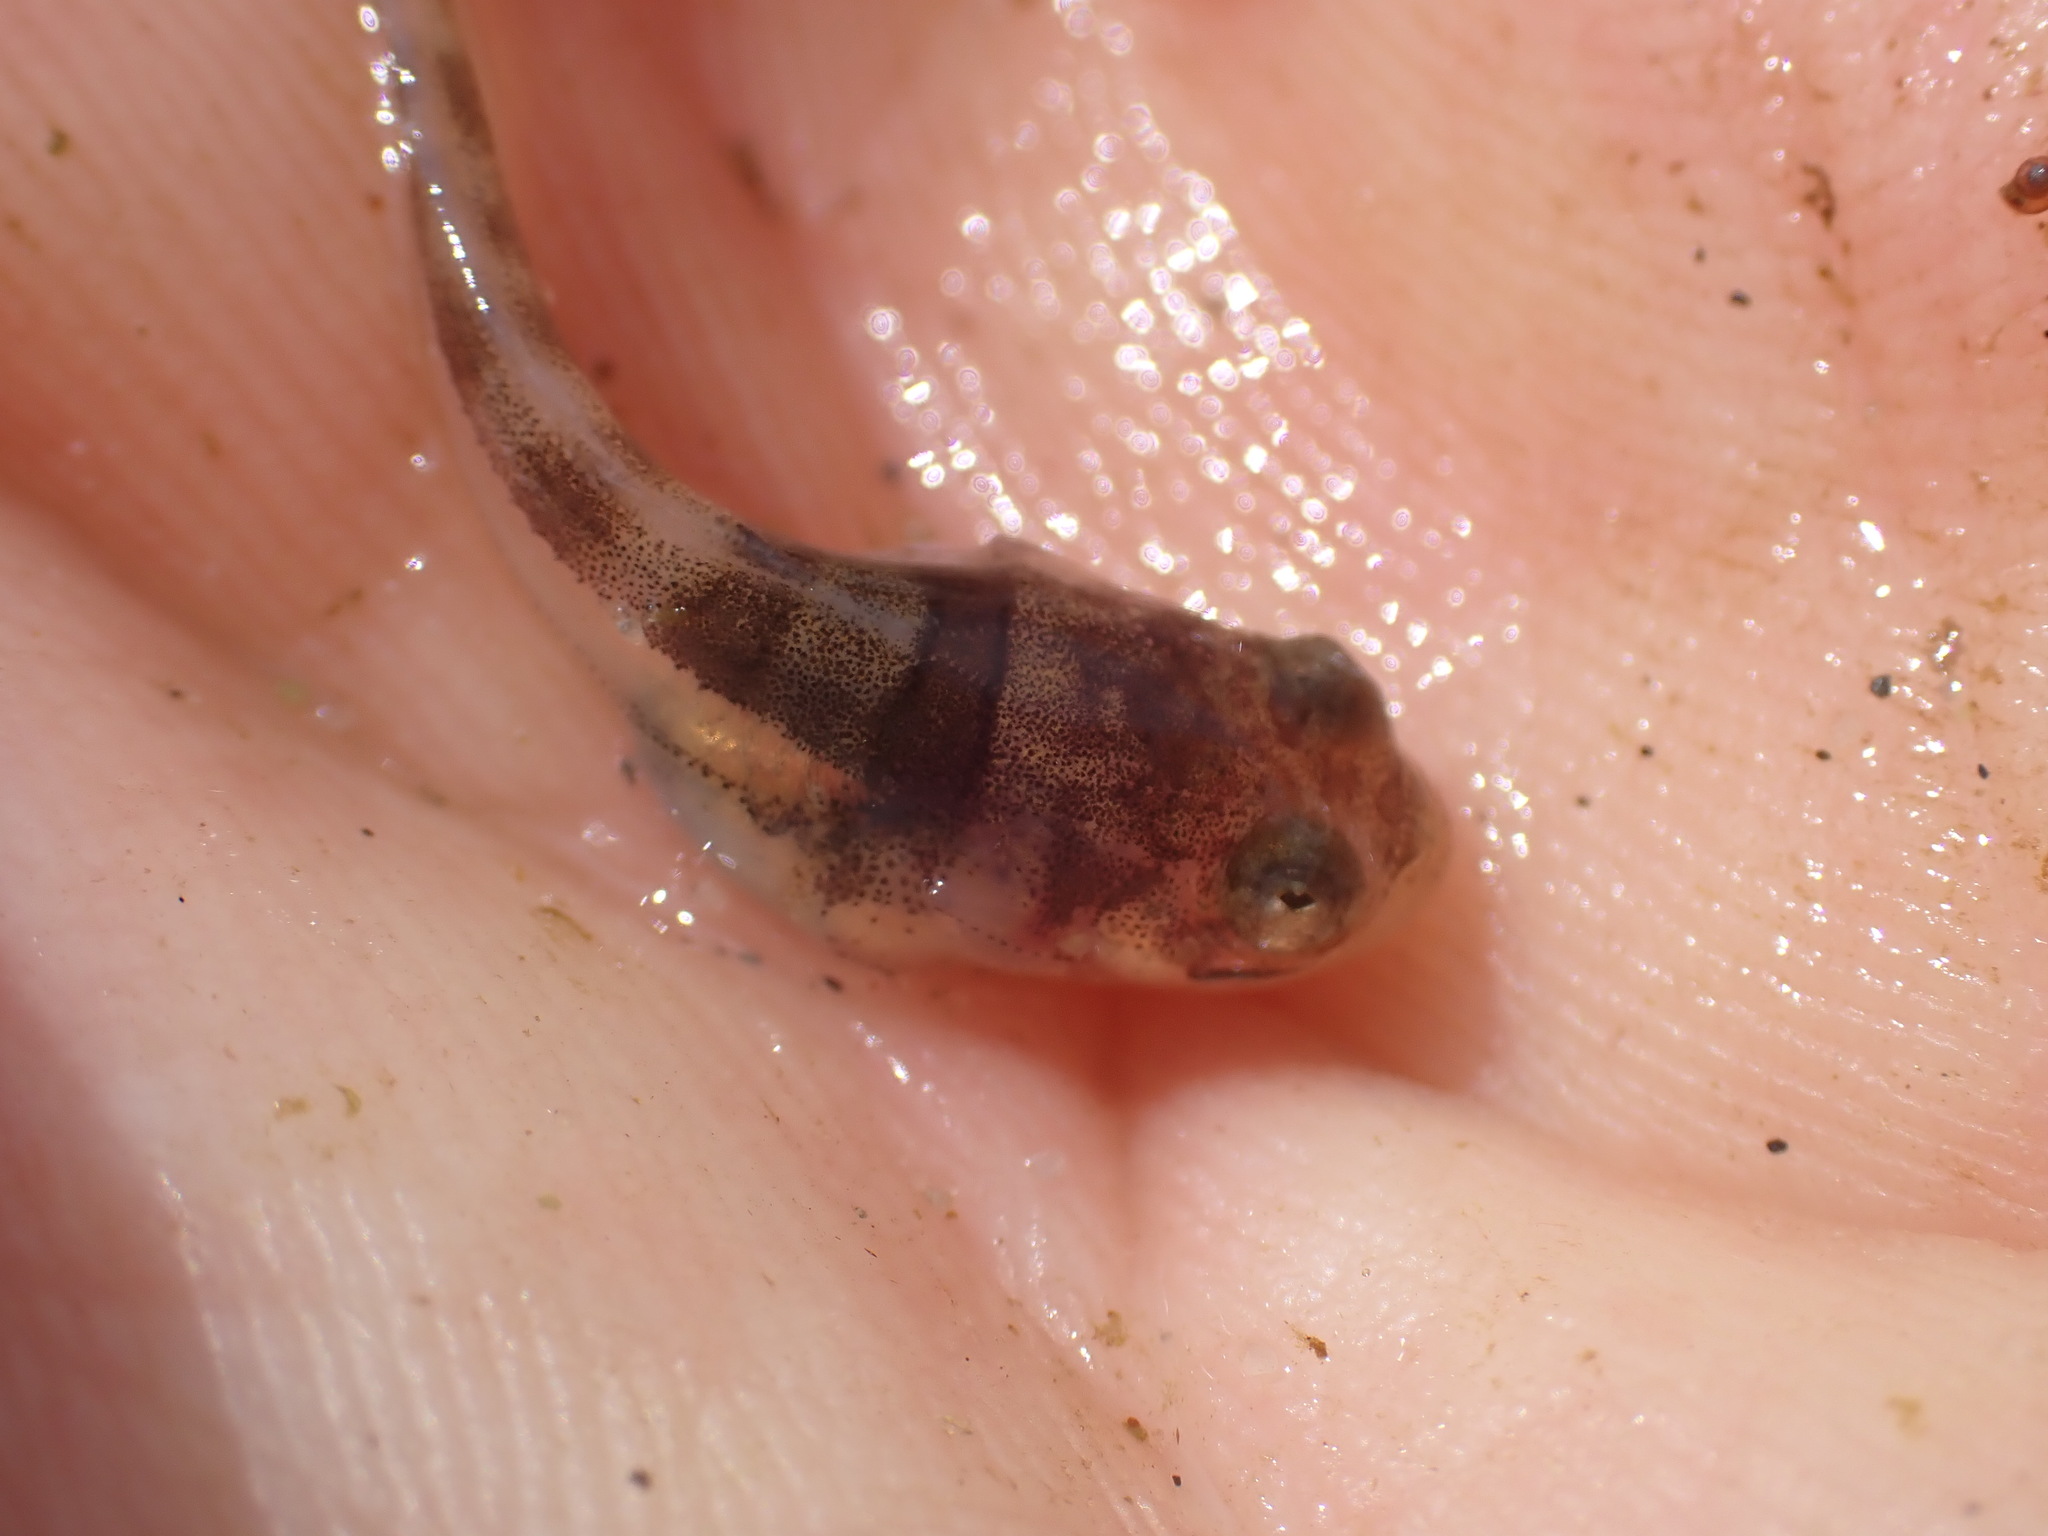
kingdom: Animalia
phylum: Chordata
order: Batrachoidiformes
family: Batrachoididae
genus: Porichthys
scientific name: Porichthys notatus
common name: Plainfin midshipman
